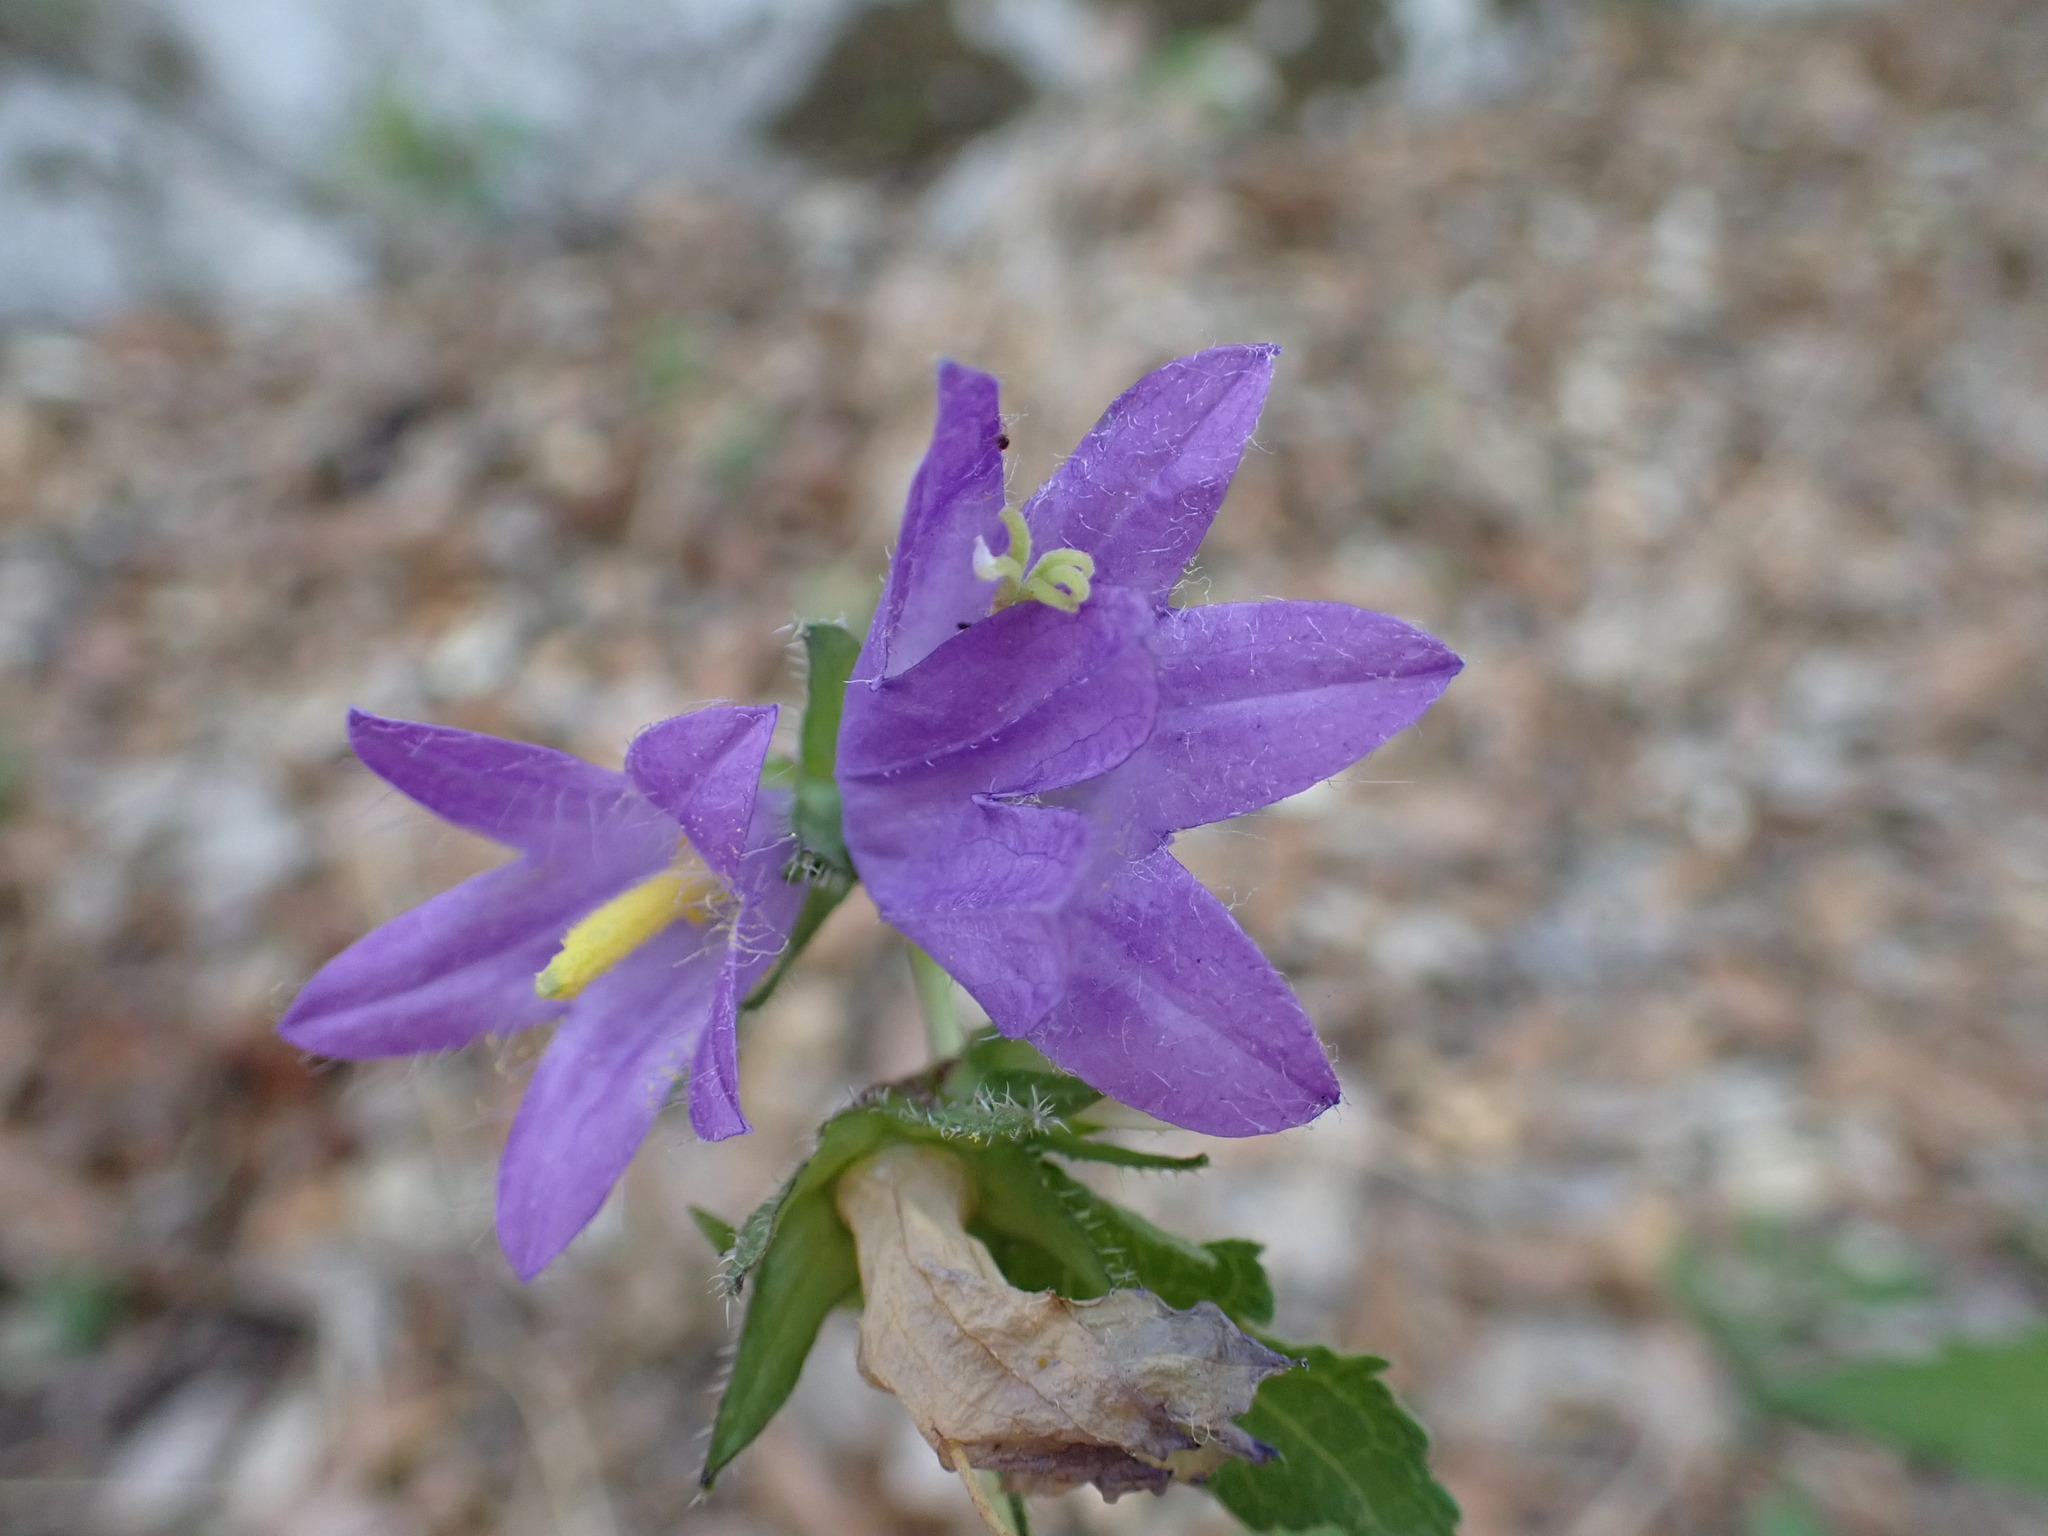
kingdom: Plantae
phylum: Tracheophyta
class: Magnoliopsida
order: Asterales
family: Campanulaceae
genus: Campanula
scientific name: Campanula trachelium
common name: Nettle-leaved bellflower
